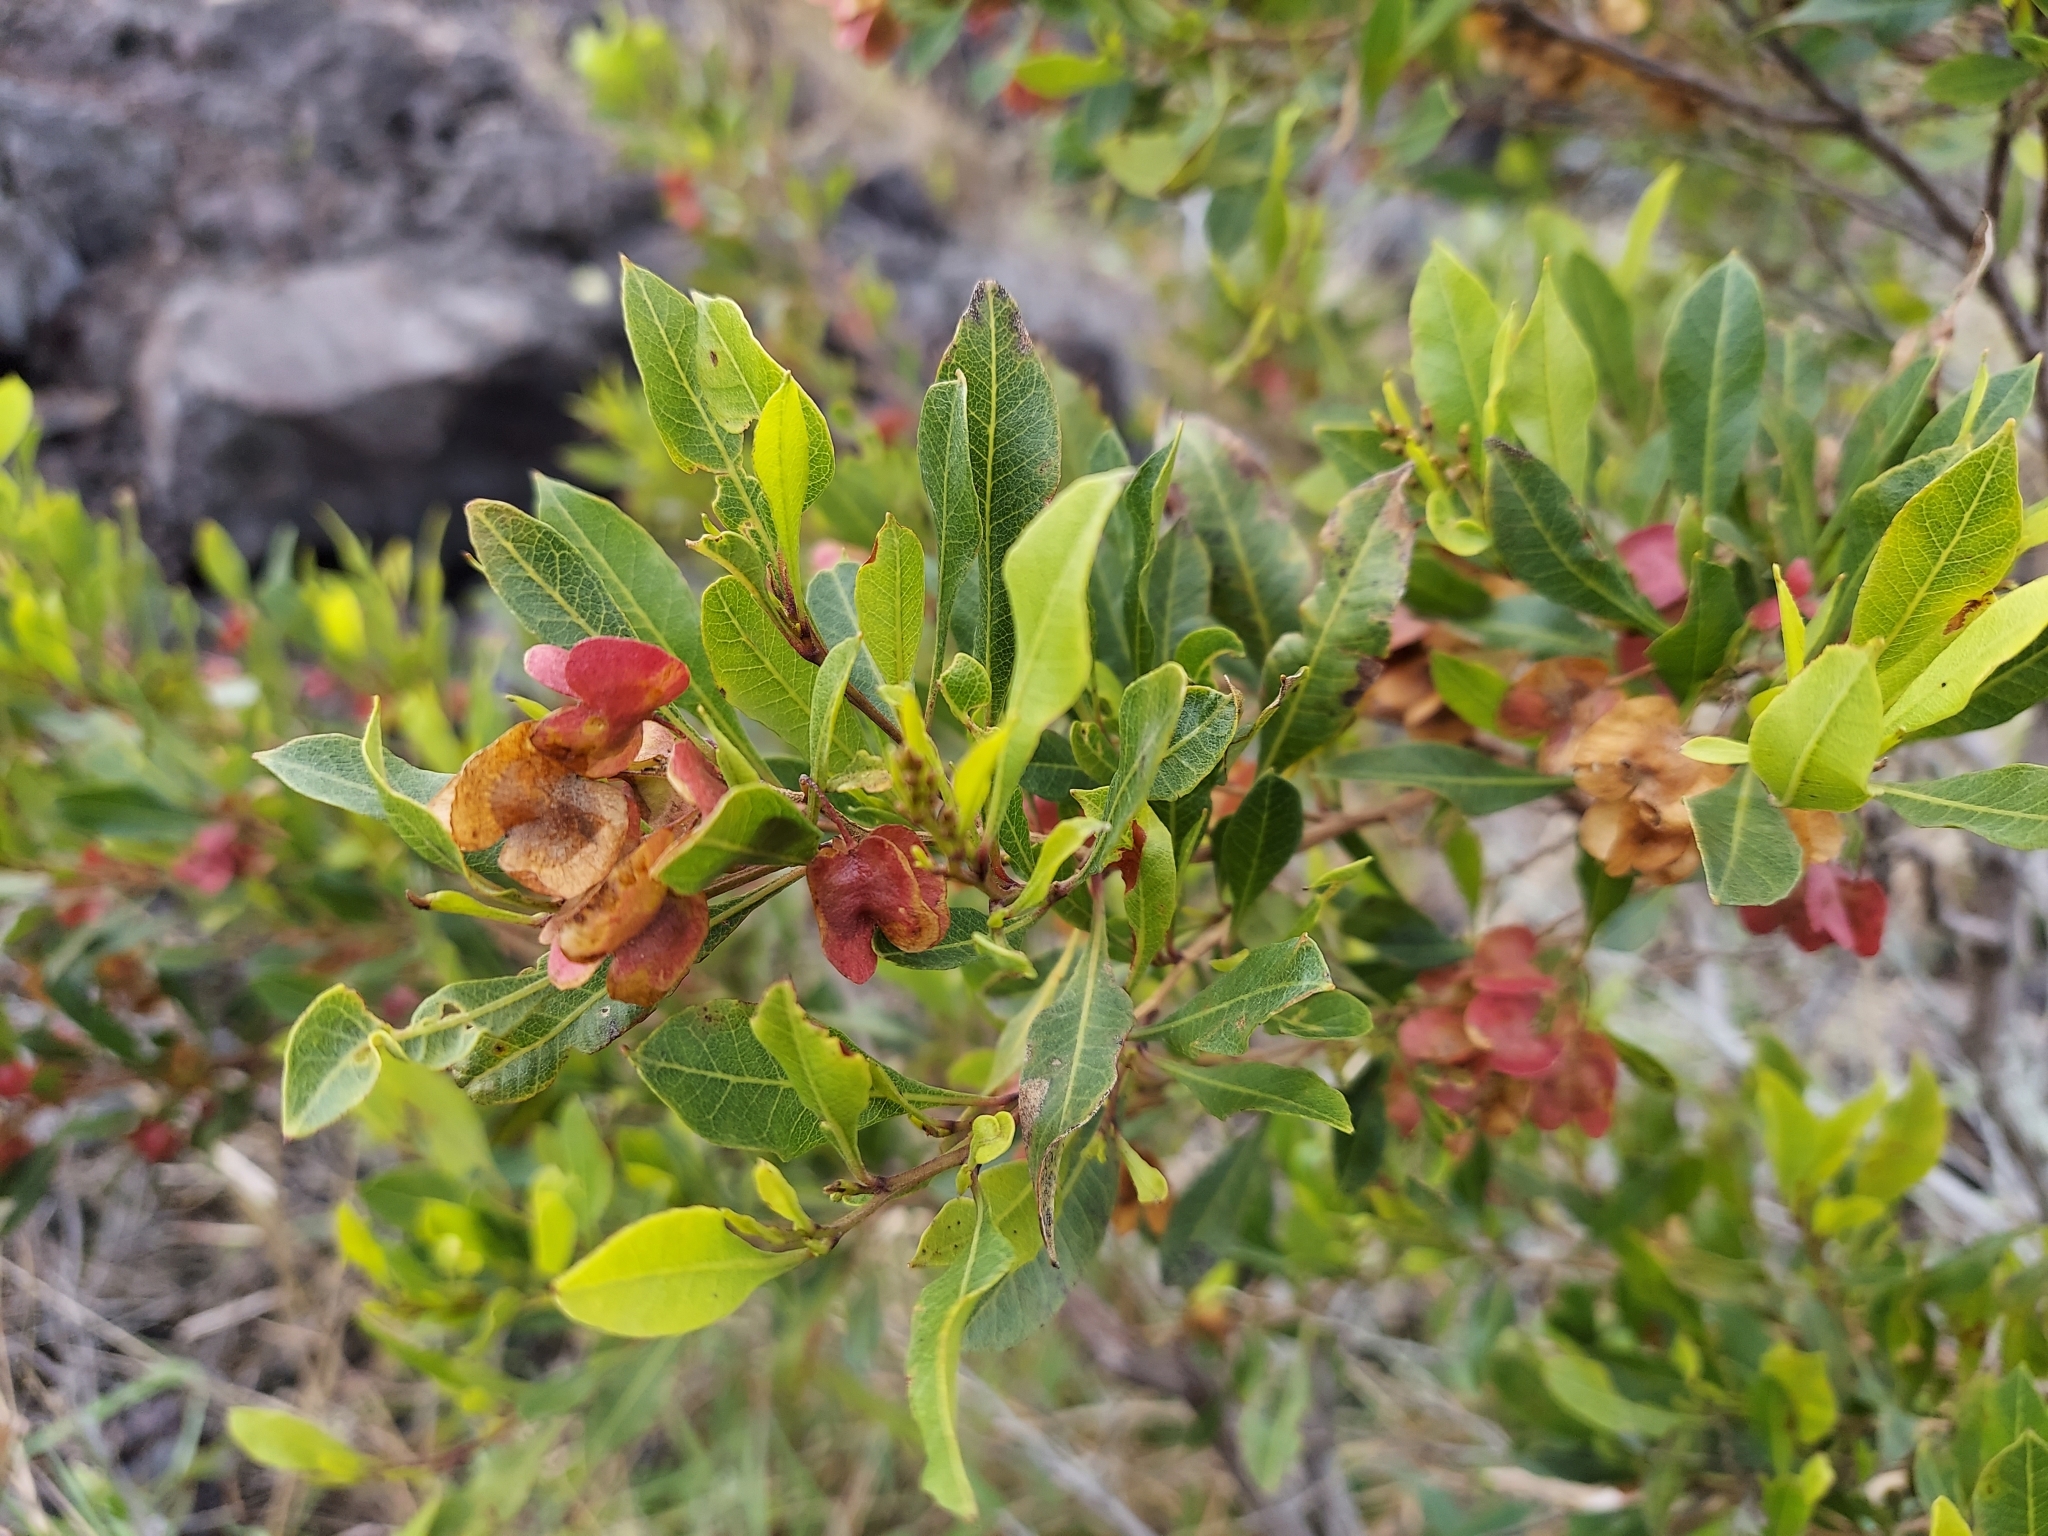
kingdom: Plantae
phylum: Tracheophyta
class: Magnoliopsida
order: Sapindales
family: Sapindaceae
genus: Dodonaea
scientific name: Dodonaea viscosa
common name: Hopbush
